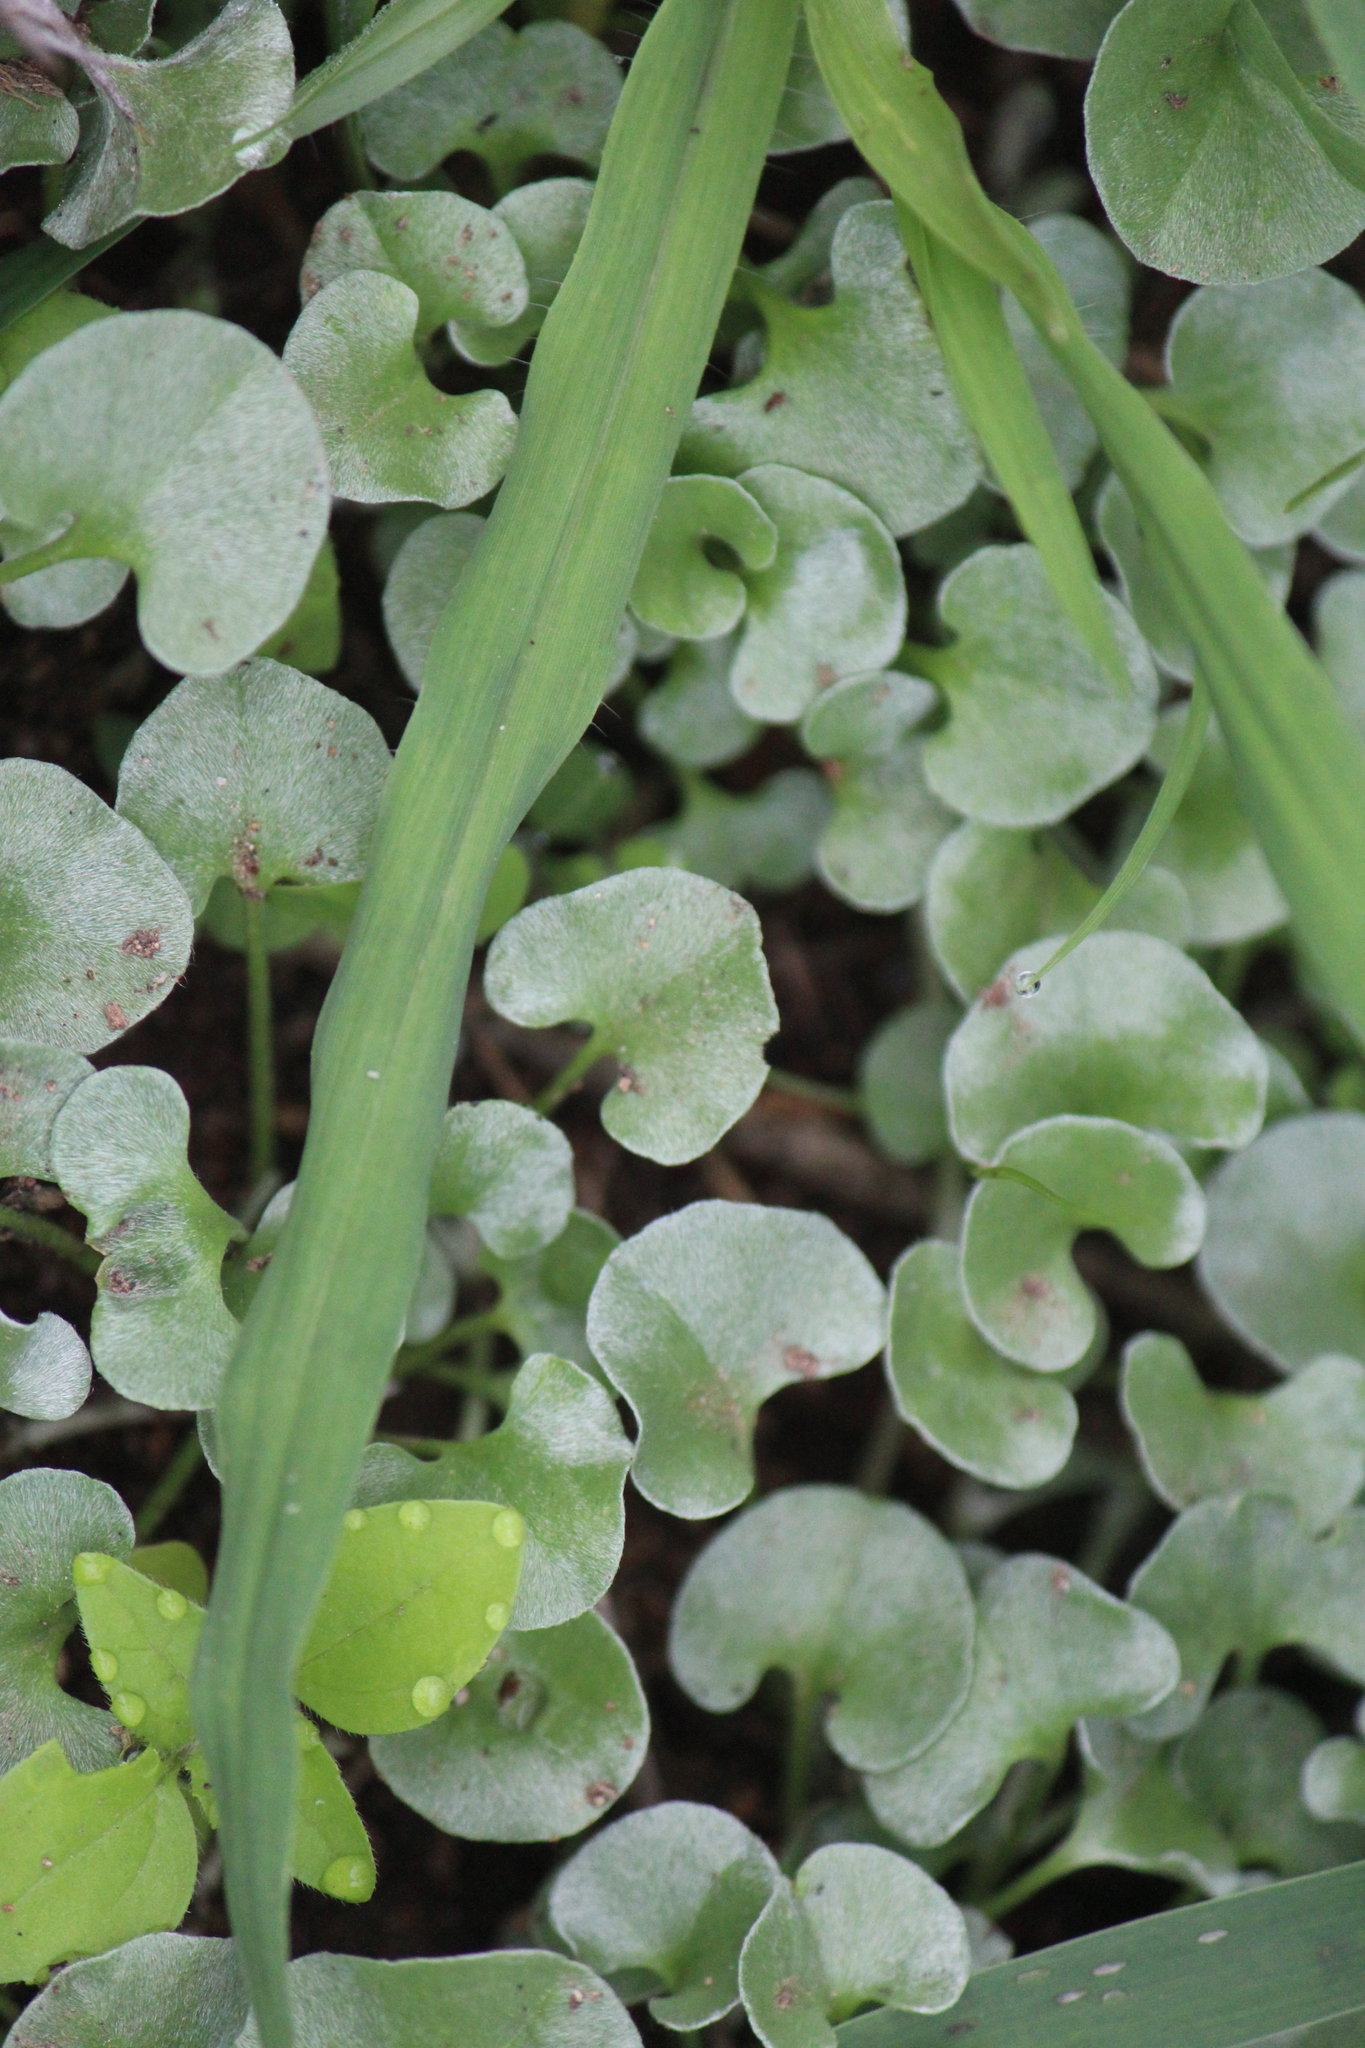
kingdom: Plantae
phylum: Tracheophyta
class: Magnoliopsida
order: Solanales
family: Convolvulaceae
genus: Dichondra
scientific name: Dichondra argentea
